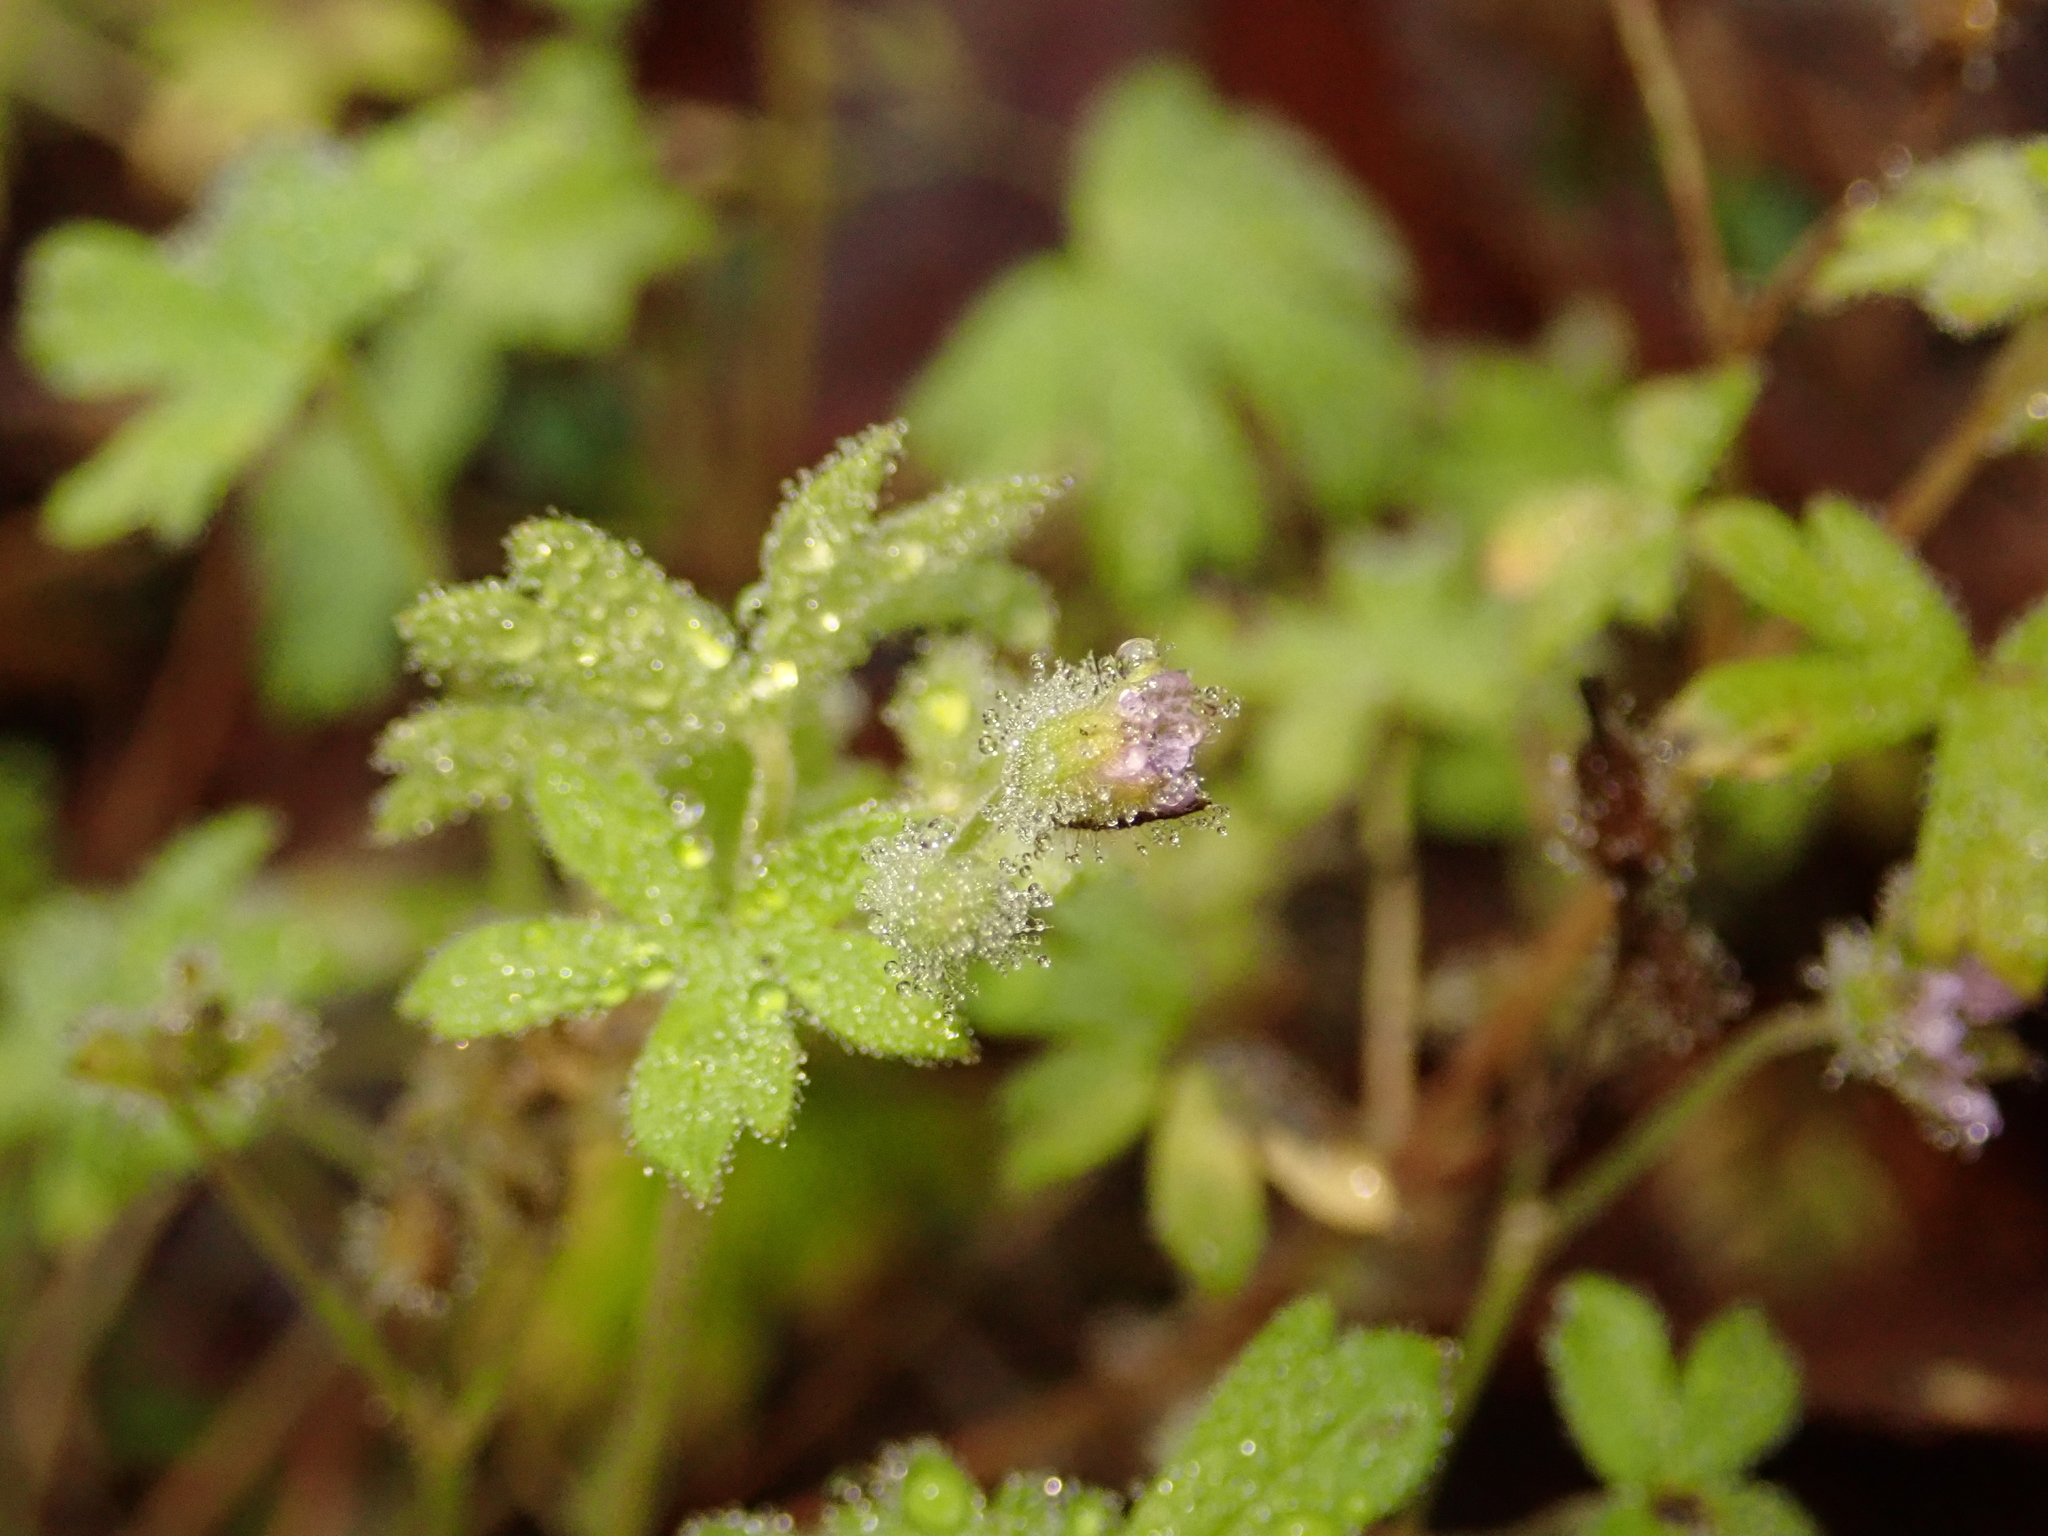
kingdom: Plantae
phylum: Tracheophyta
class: Magnoliopsida
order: Geraniales
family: Geraniaceae
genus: Geranium
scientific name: Geranium pusillum
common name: Small geranium
